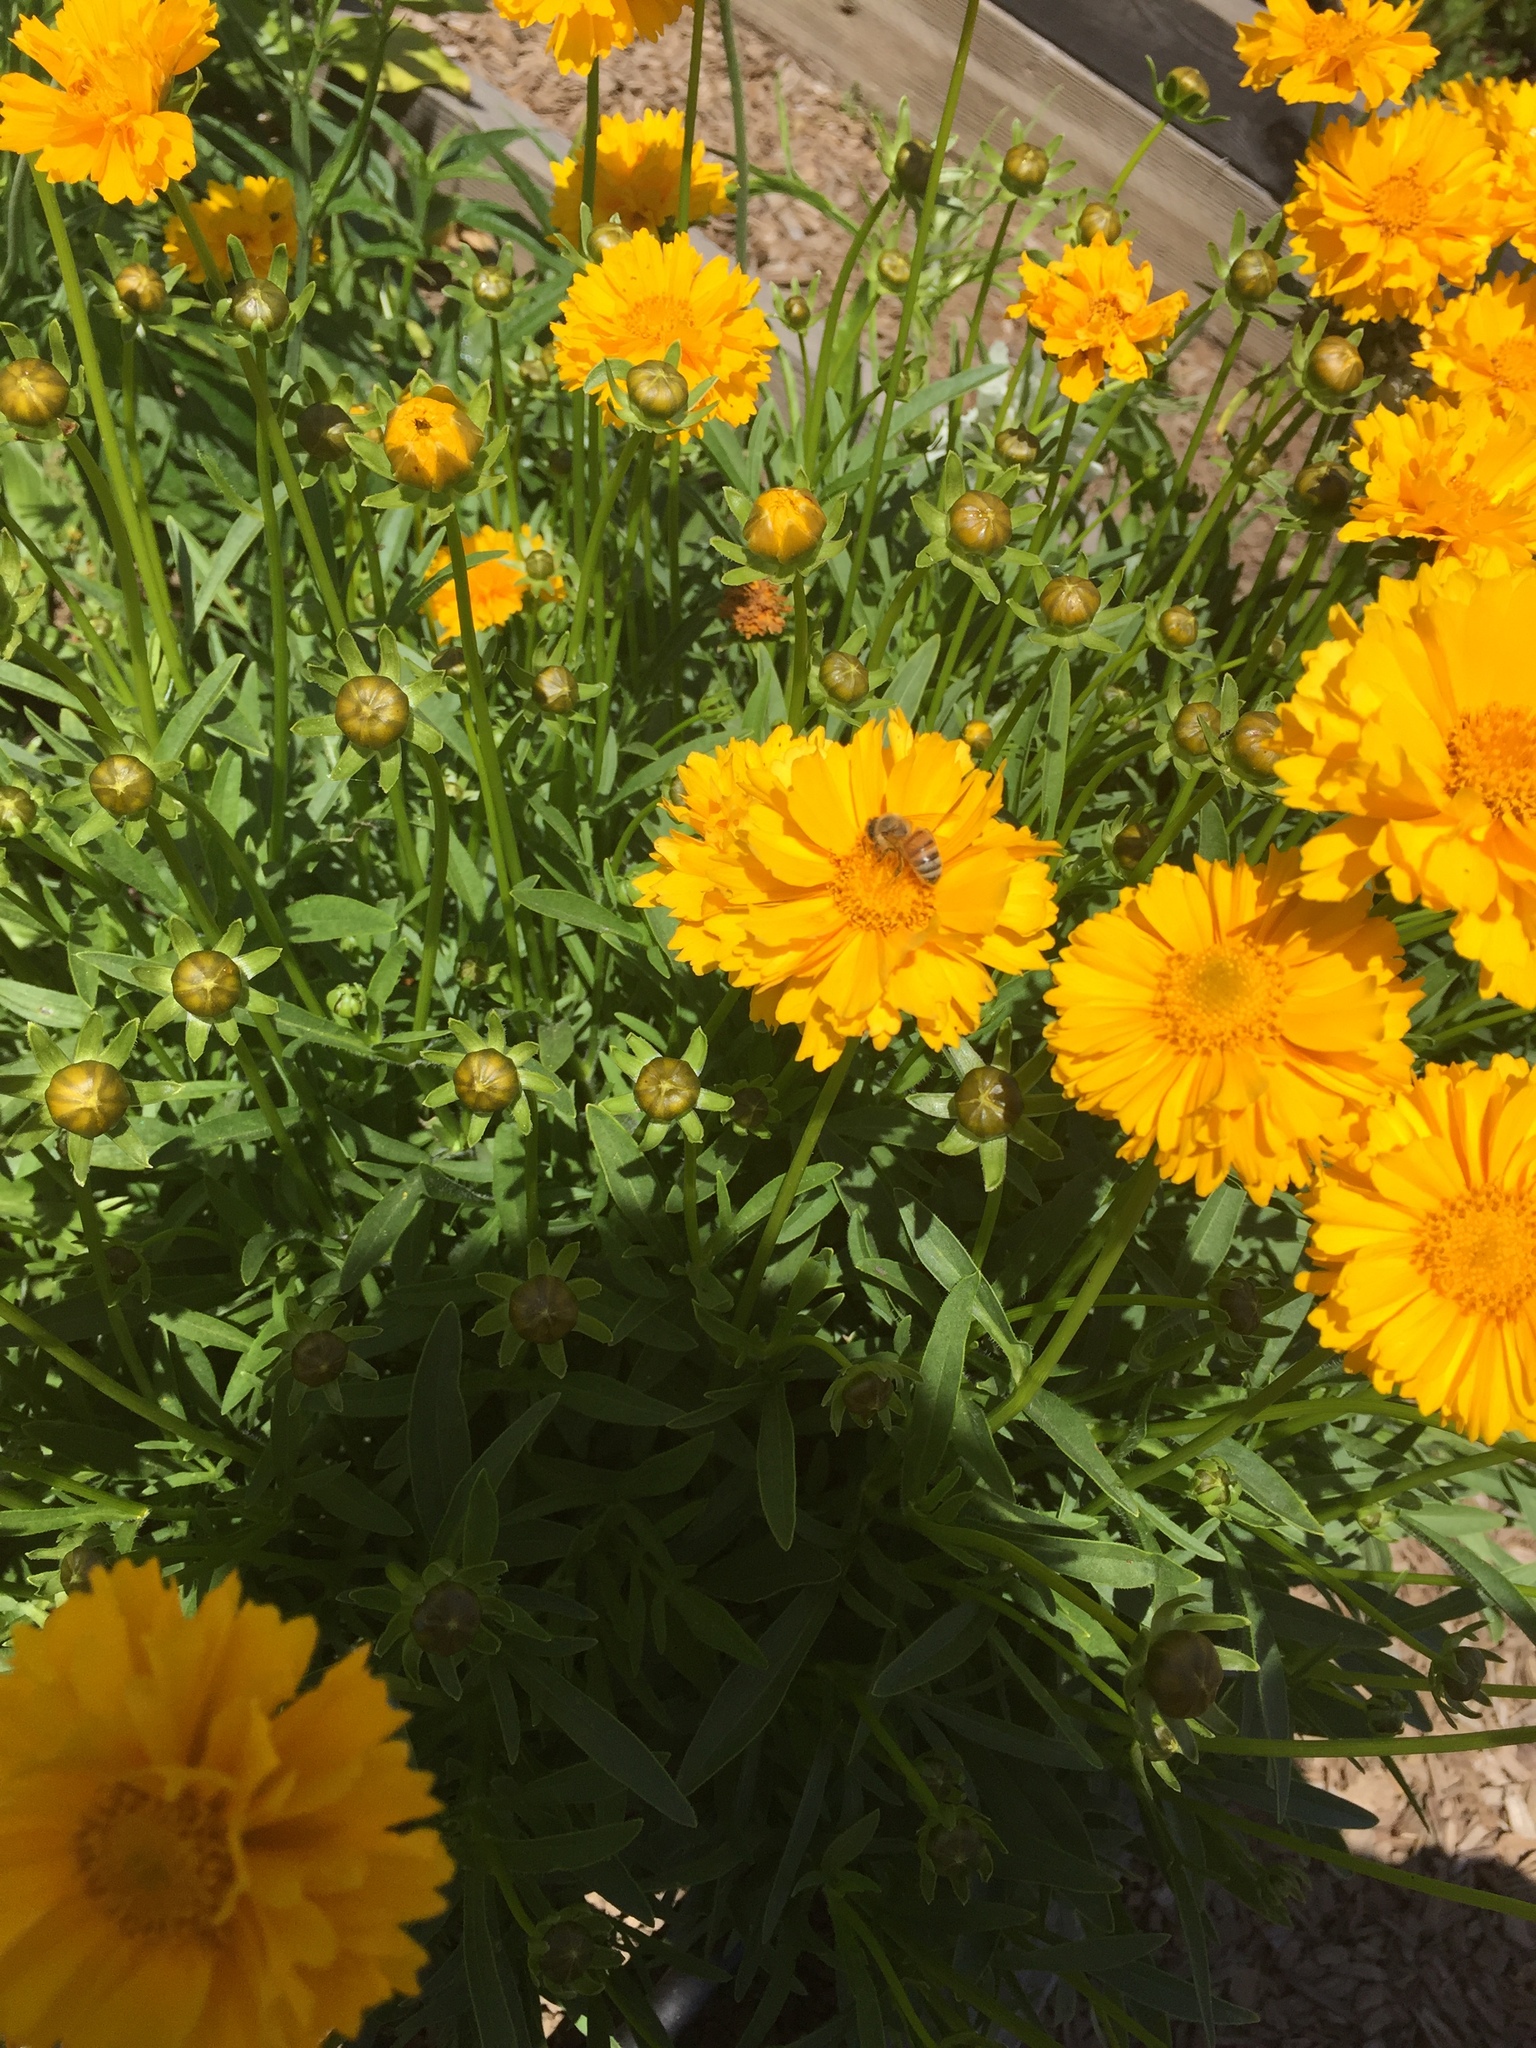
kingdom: Animalia
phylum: Arthropoda
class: Insecta
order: Hymenoptera
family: Apidae
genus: Apis
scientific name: Apis mellifera
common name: Honey bee
